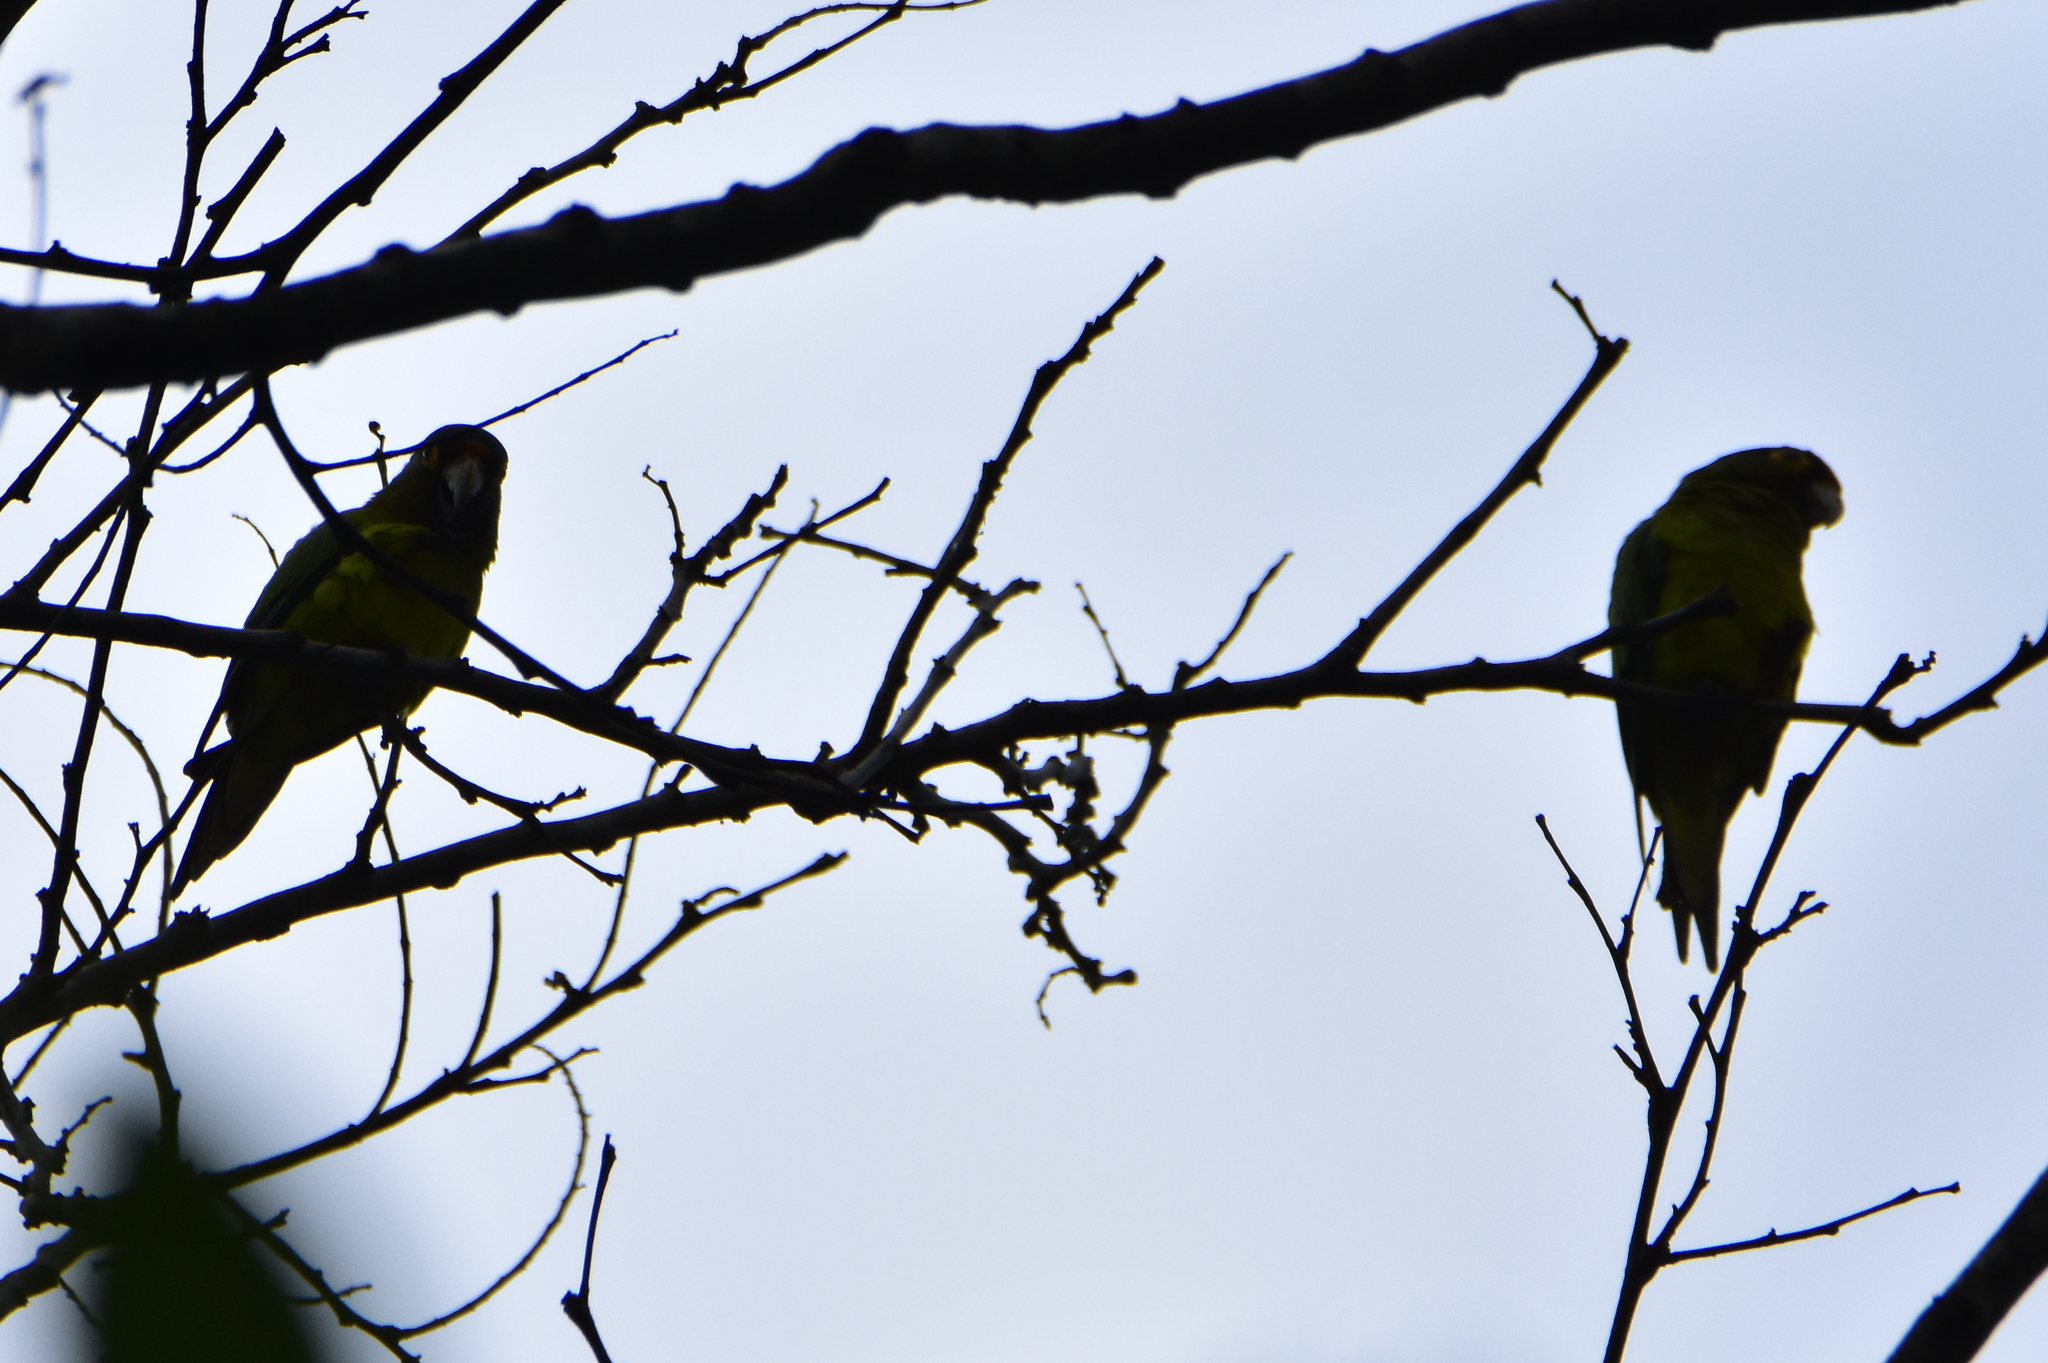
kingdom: Animalia
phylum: Chordata
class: Aves
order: Psittaciformes
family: Psittacidae
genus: Aratinga
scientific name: Aratinga canicularis
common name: Orange-fronted parakeet
